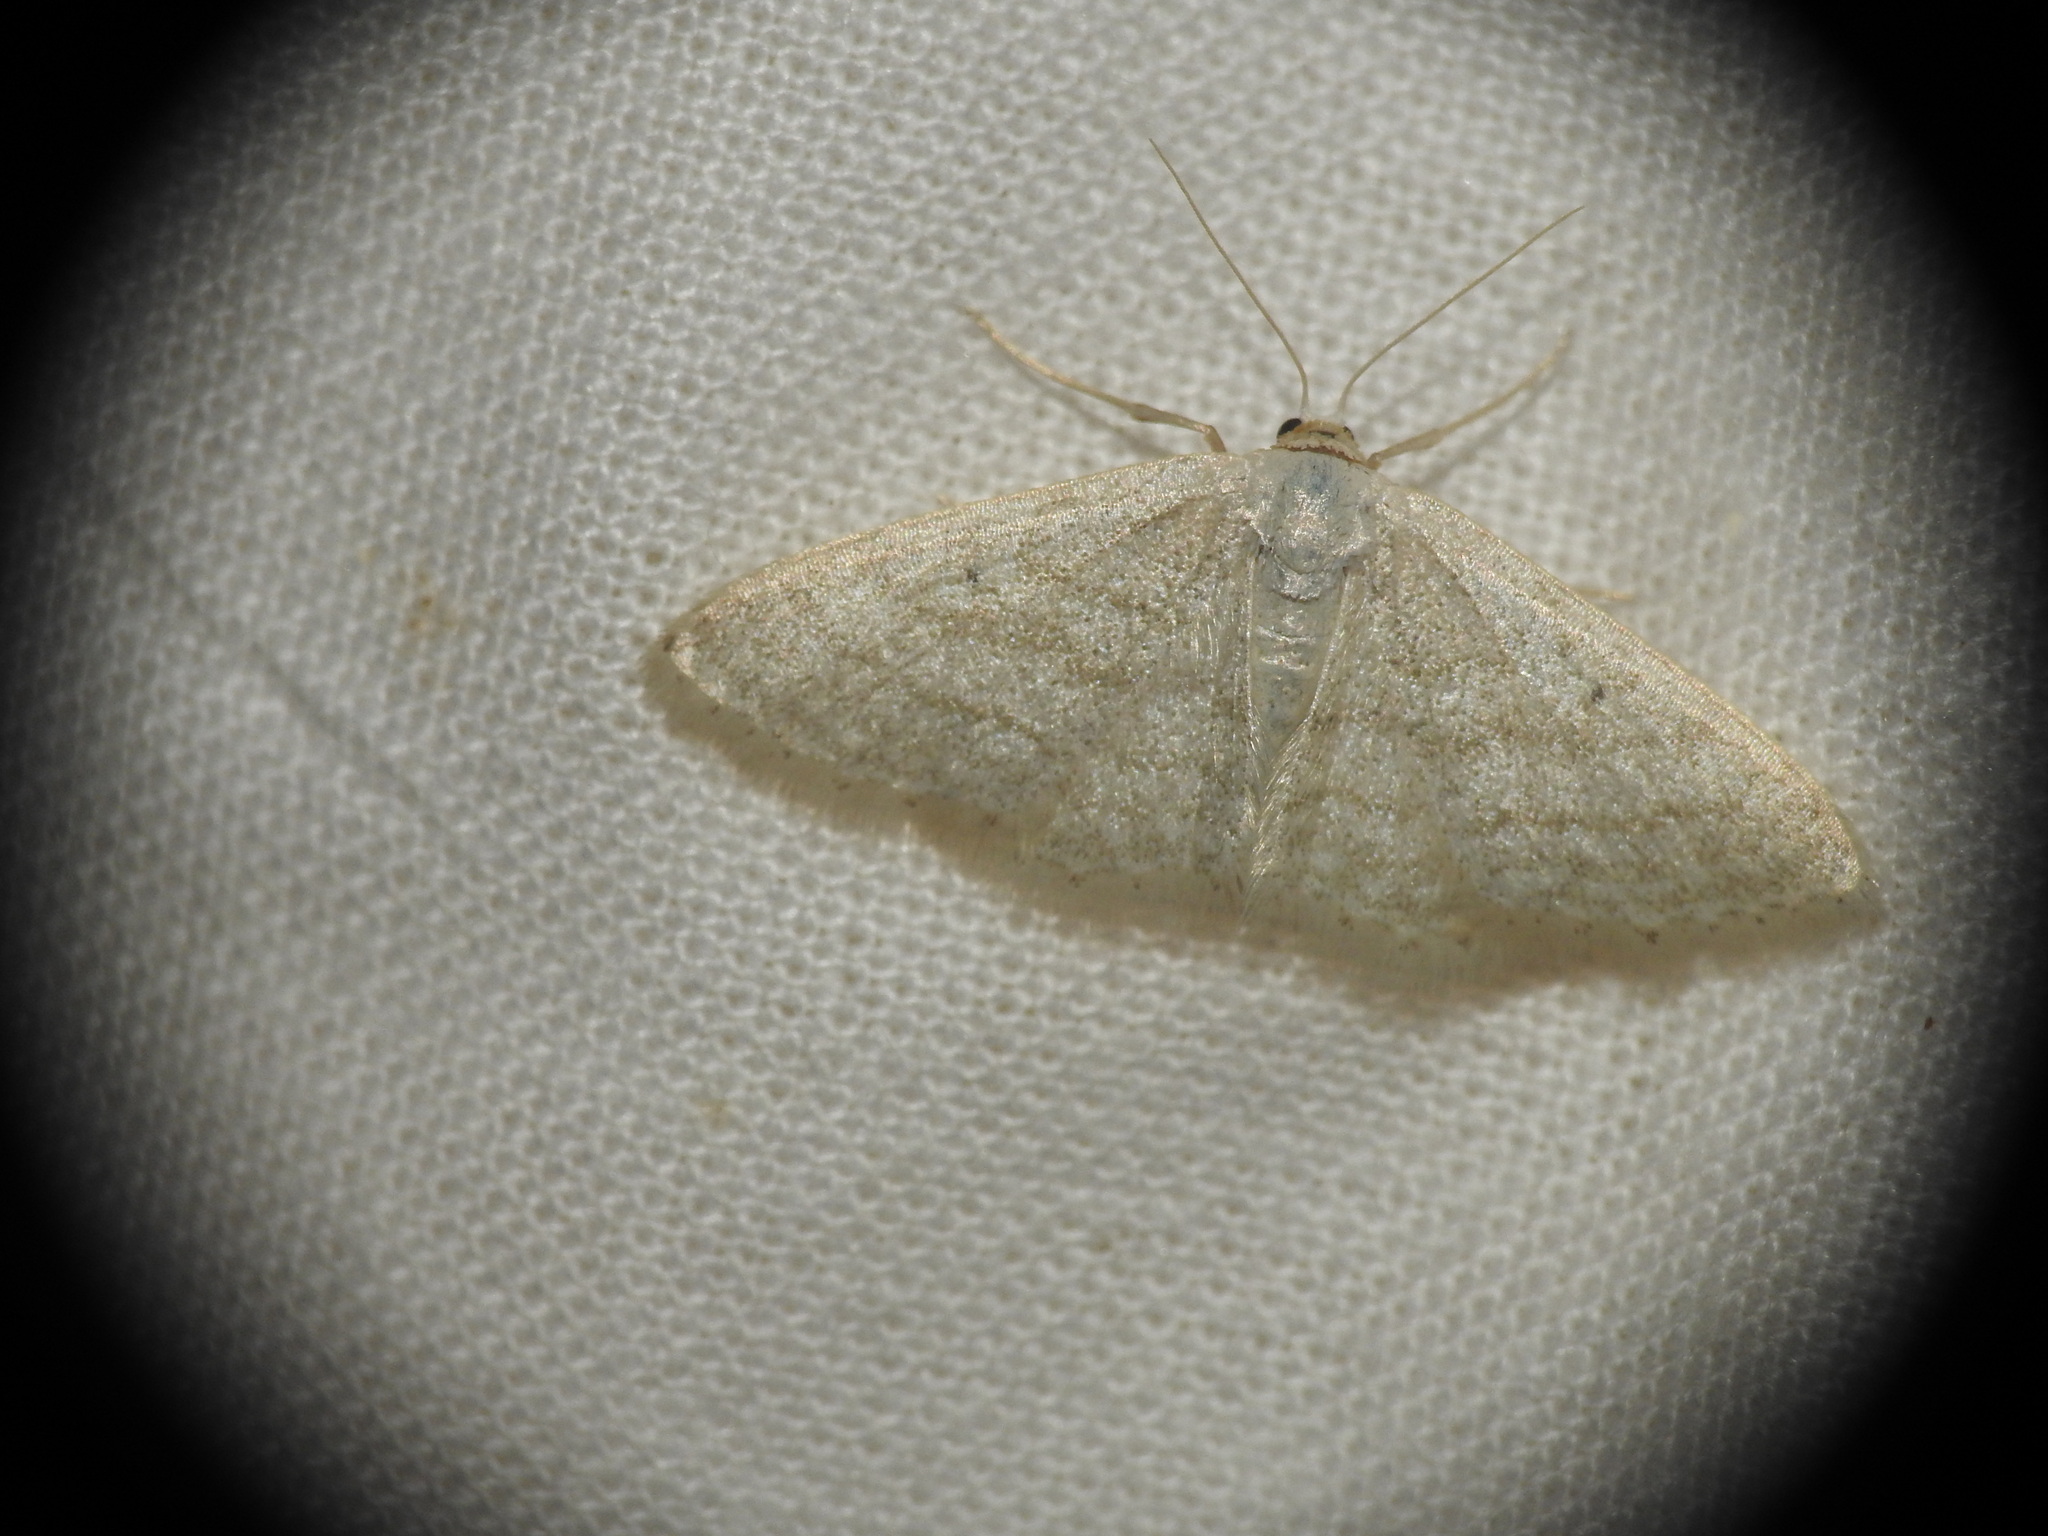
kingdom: Animalia
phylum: Arthropoda
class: Insecta
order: Lepidoptera
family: Geometridae
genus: Idaea
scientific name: Idaea subsericeata
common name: Satin wave
